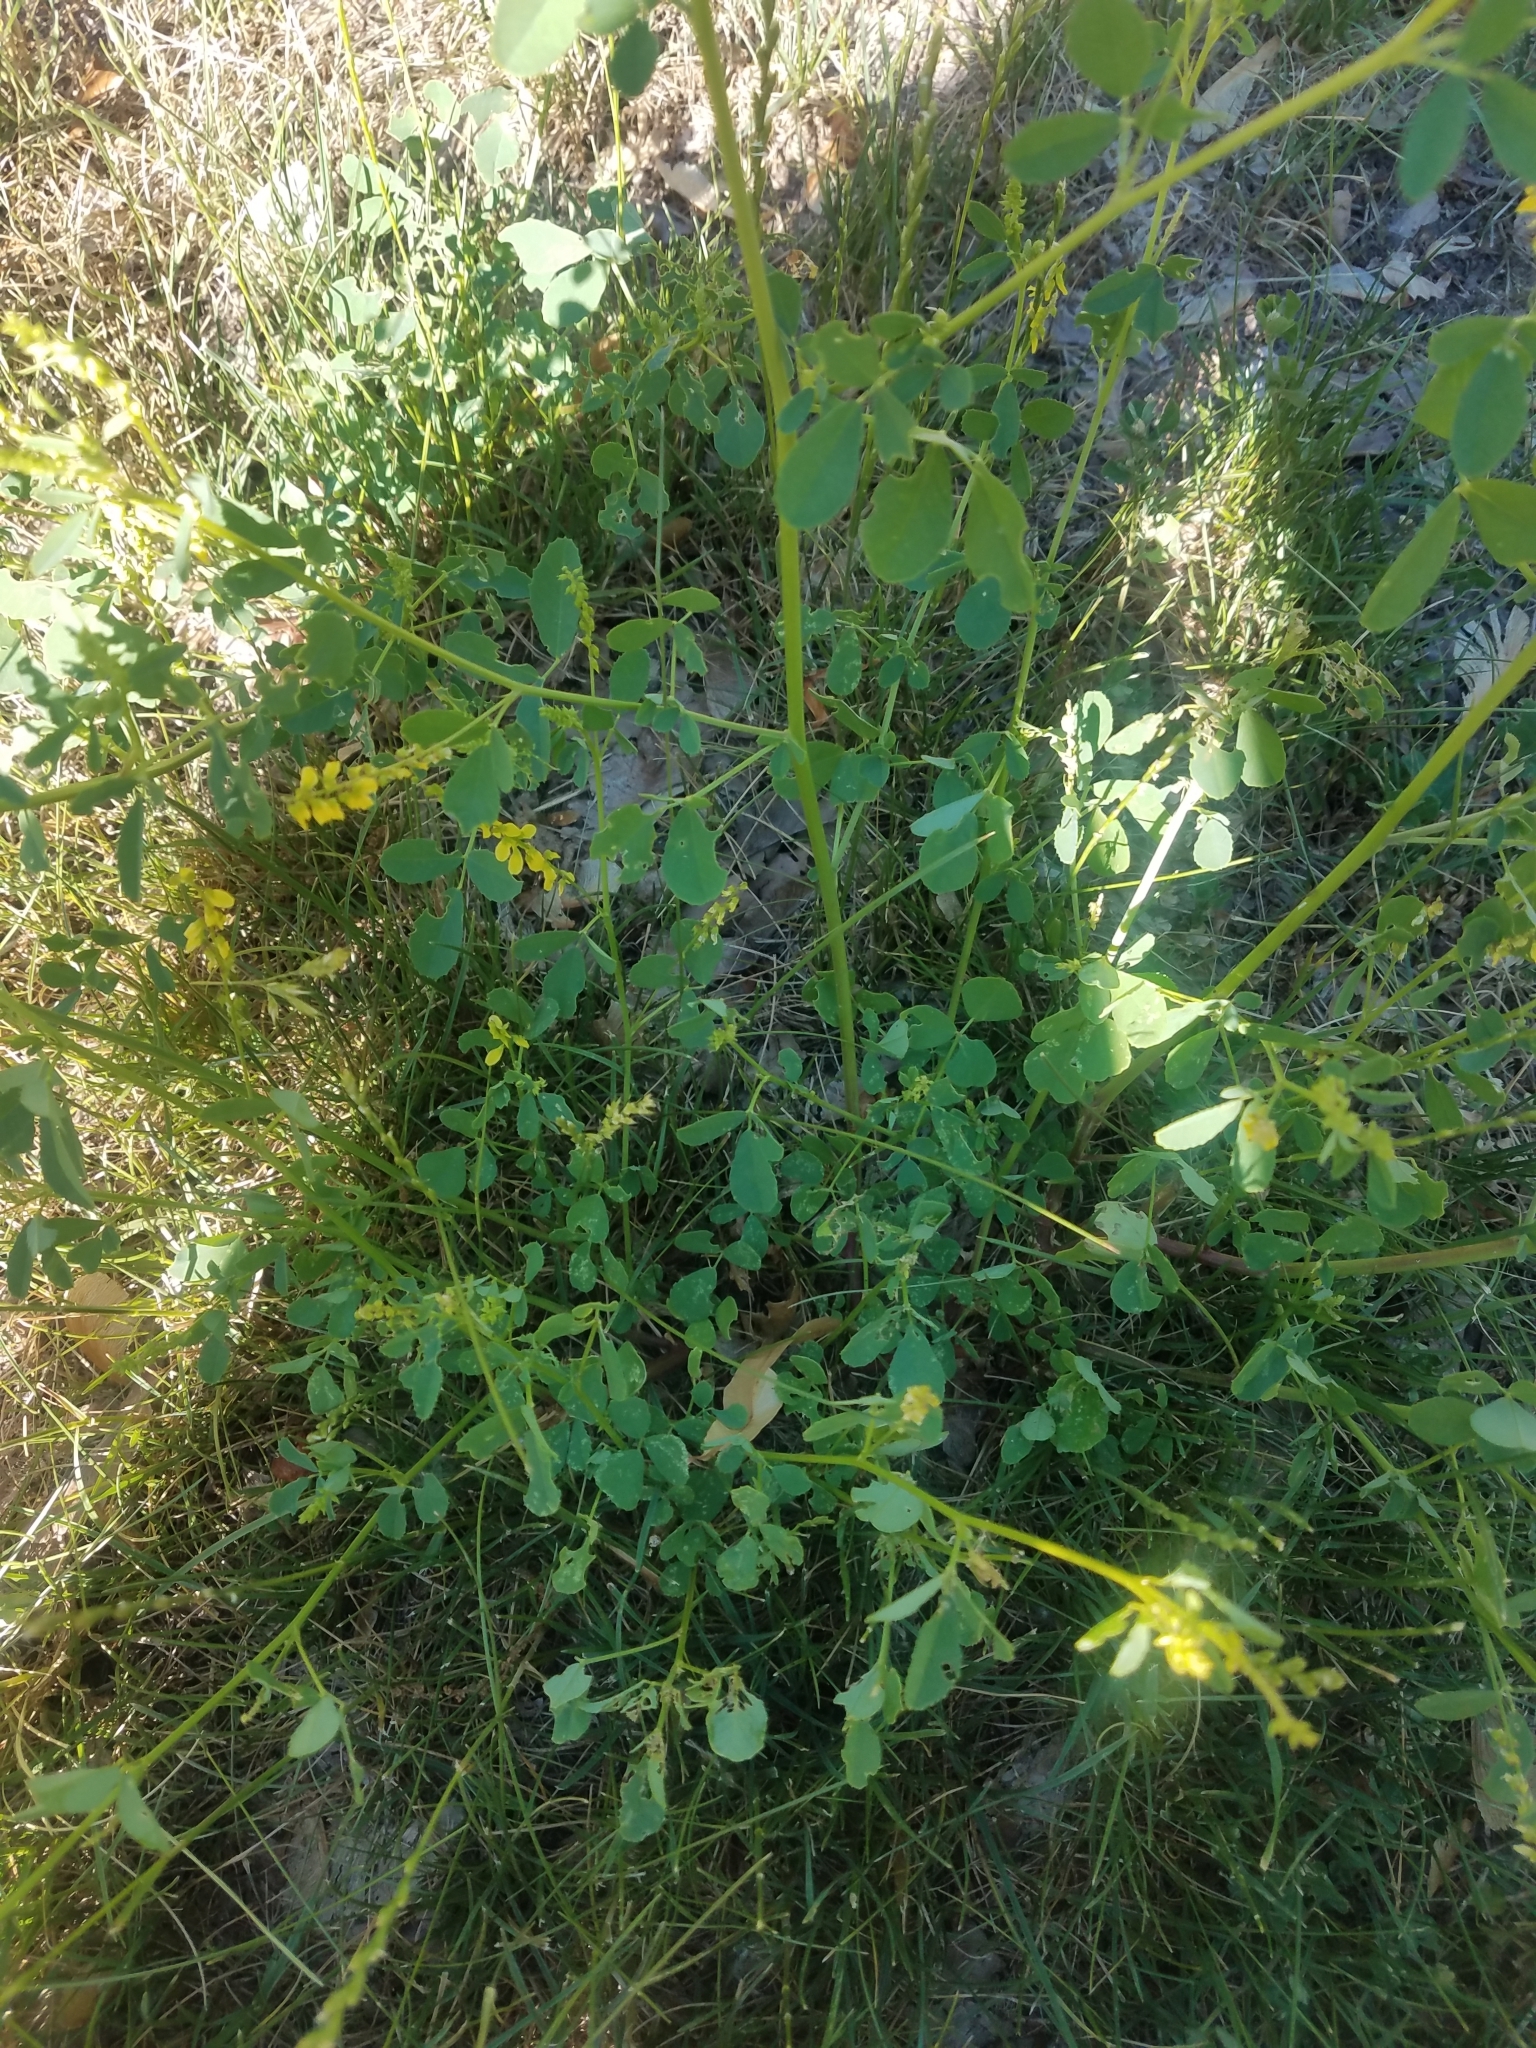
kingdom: Plantae
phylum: Tracheophyta
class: Magnoliopsida
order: Fabales
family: Fabaceae
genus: Melilotus
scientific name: Melilotus officinalis
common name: Sweetclover
